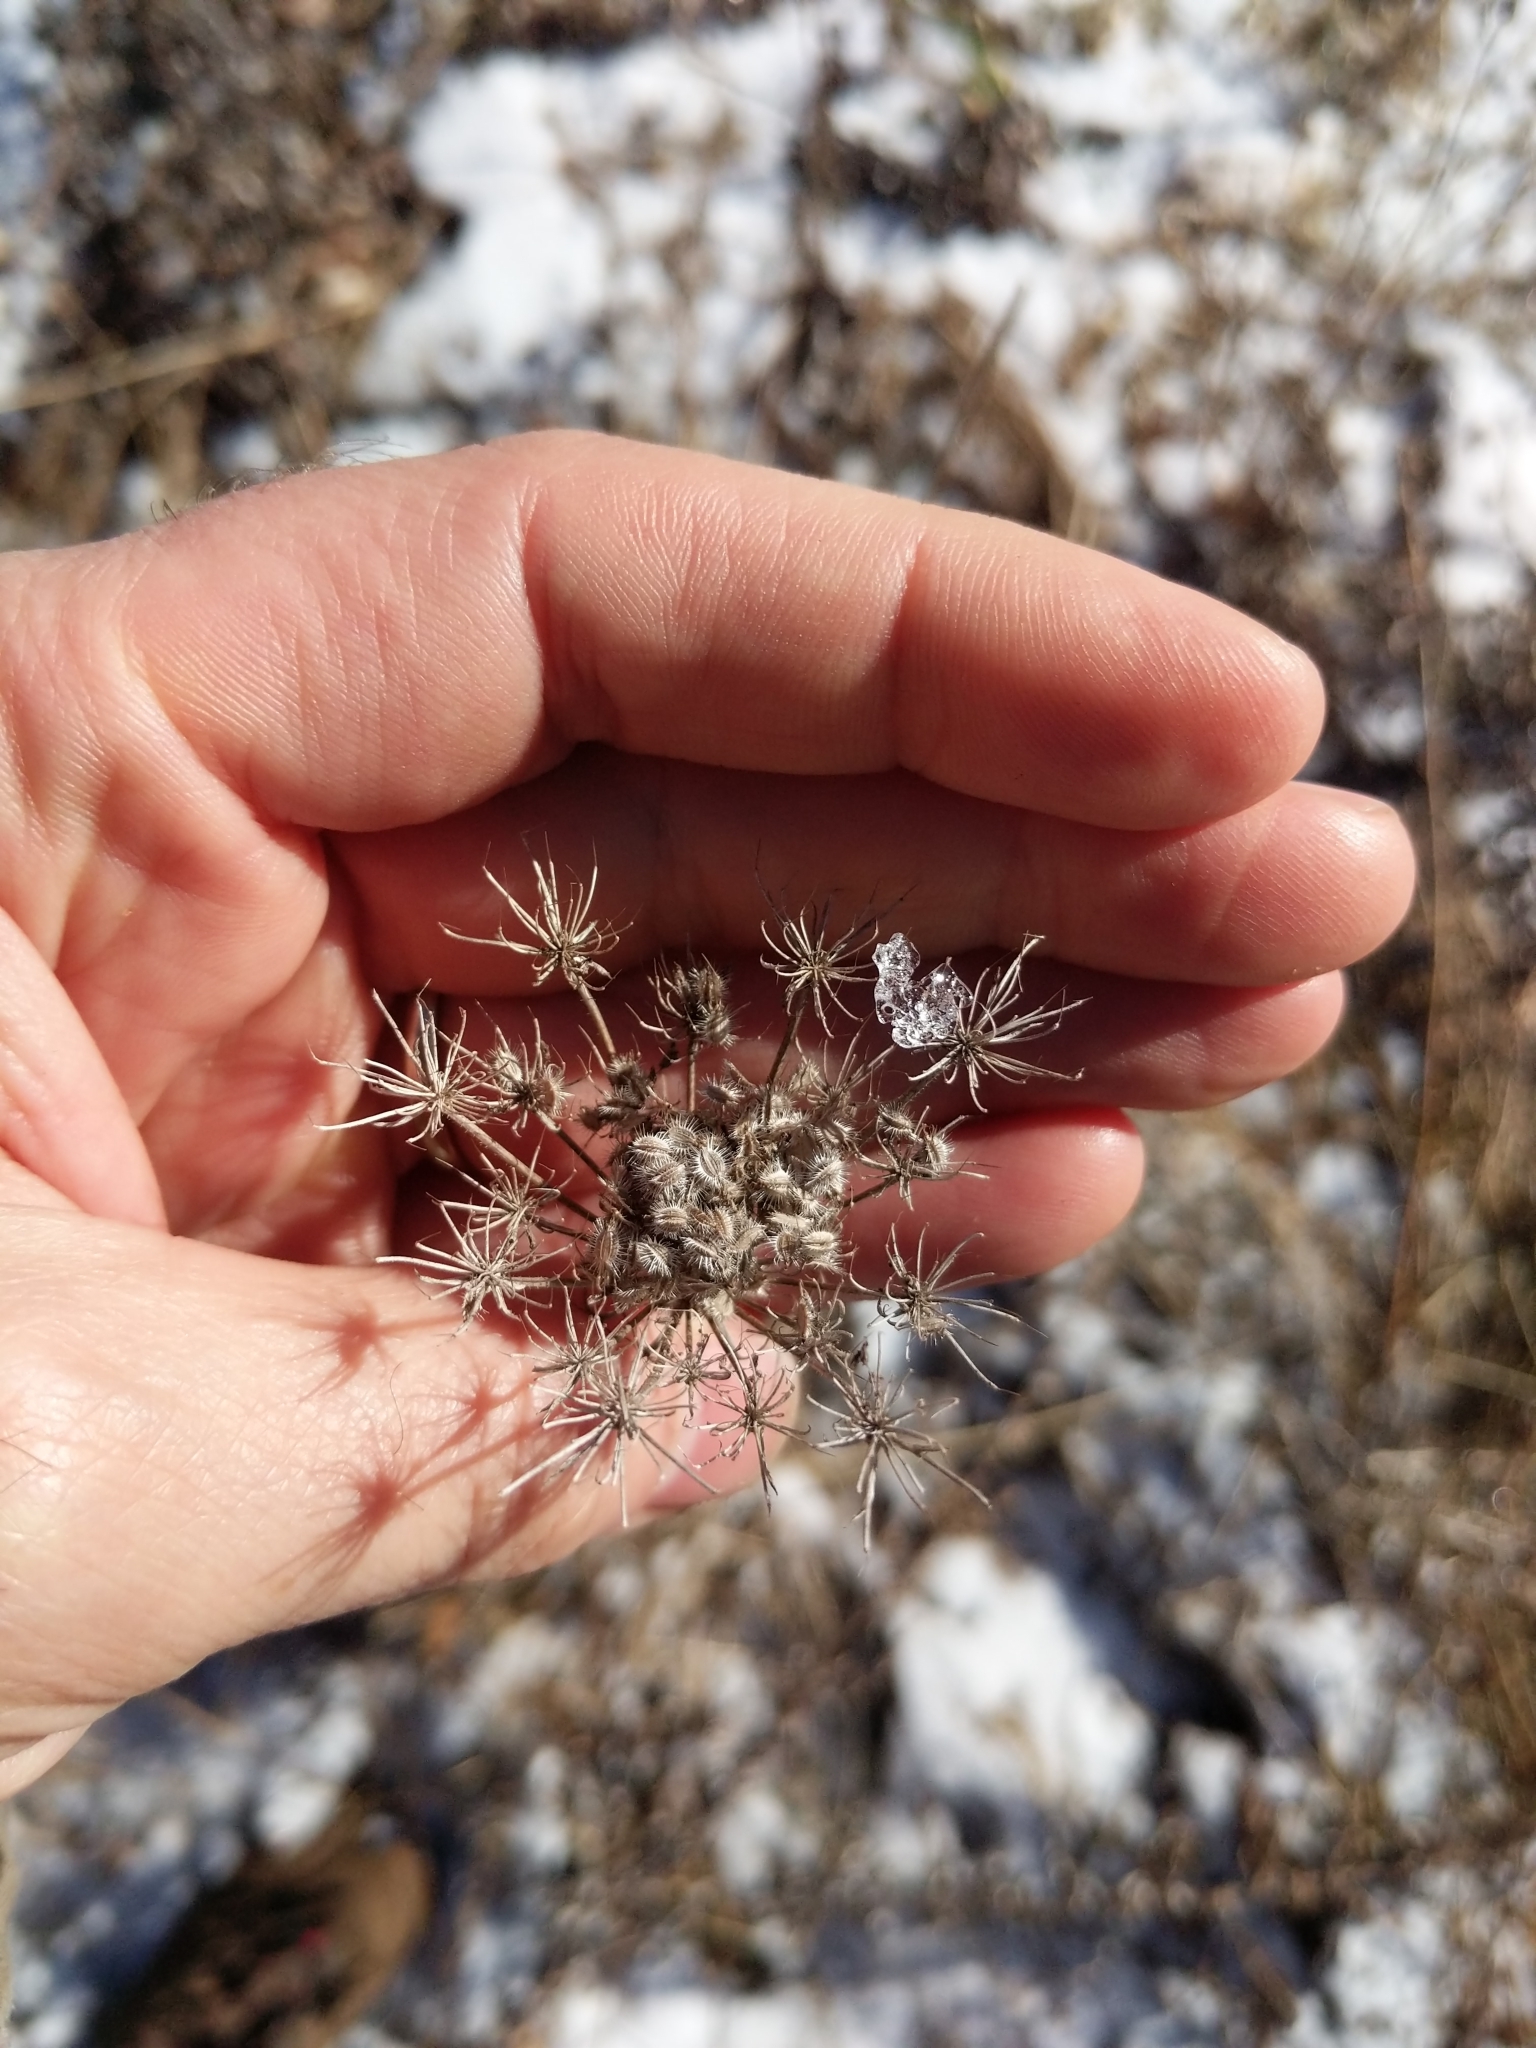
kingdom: Plantae
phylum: Tracheophyta
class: Magnoliopsida
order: Apiales
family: Apiaceae
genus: Daucus
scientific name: Daucus carota
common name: Wild carrot
